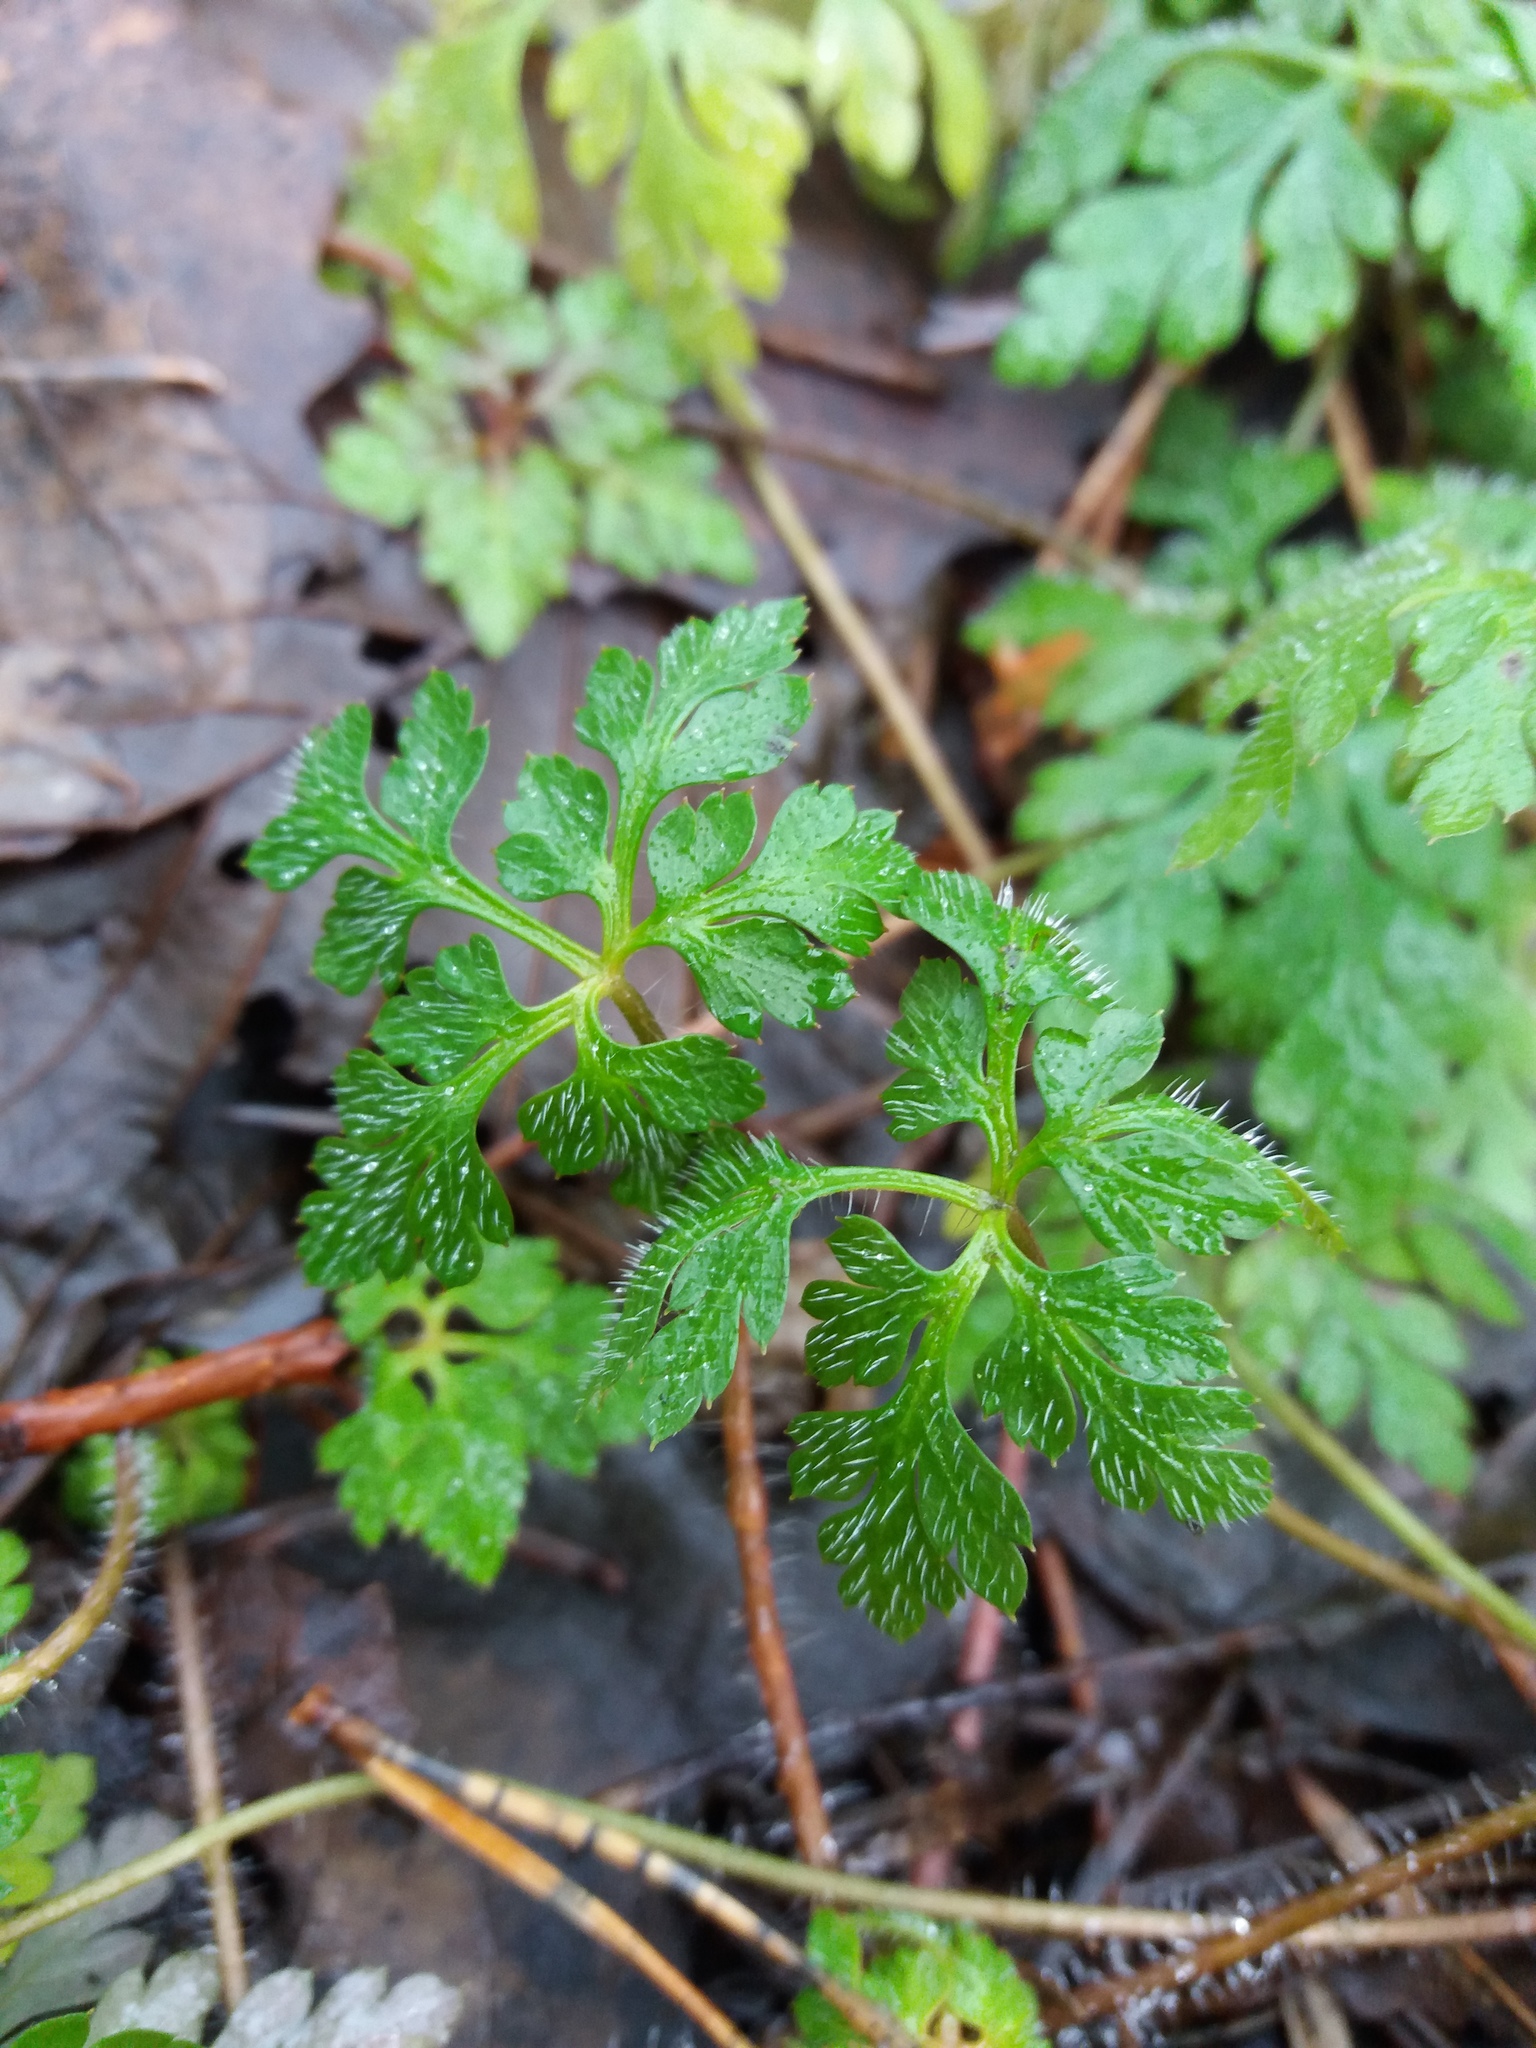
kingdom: Plantae
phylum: Tracheophyta
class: Magnoliopsida
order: Geraniales
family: Geraniaceae
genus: Geranium
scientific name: Geranium robertianum
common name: Herb-robert
